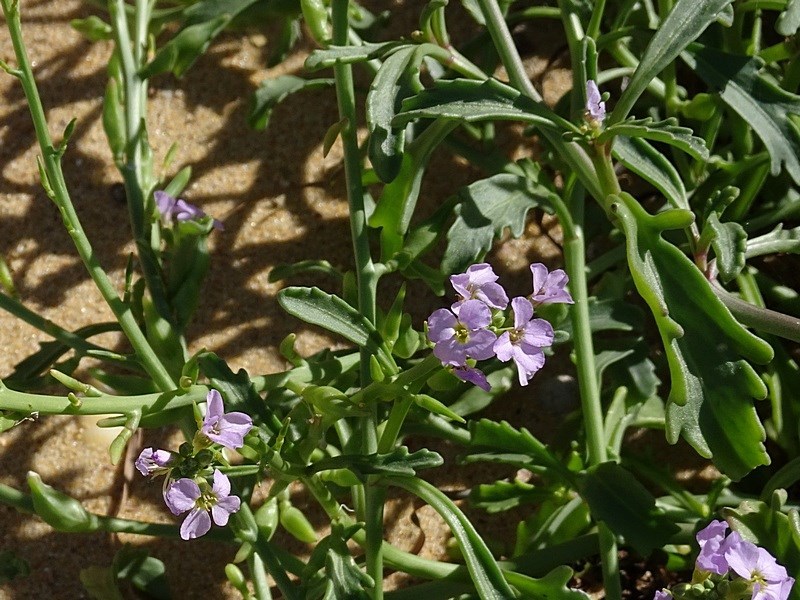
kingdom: Plantae
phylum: Tracheophyta
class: Magnoliopsida
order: Brassicales
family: Brassicaceae
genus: Cakile
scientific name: Cakile maritima
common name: Sea rocket
